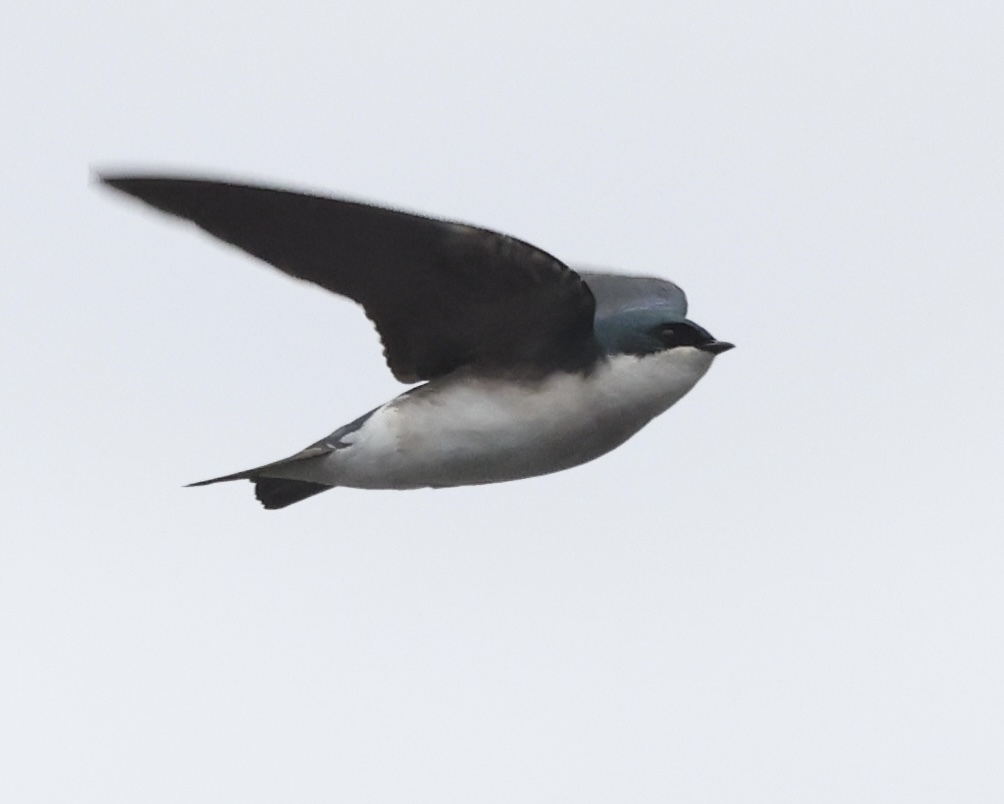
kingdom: Animalia
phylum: Chordata
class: Aves
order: Passeriformes
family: Hirundinidae
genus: Tachycineta
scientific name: Tachycineta bicolor
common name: Tree swallow
